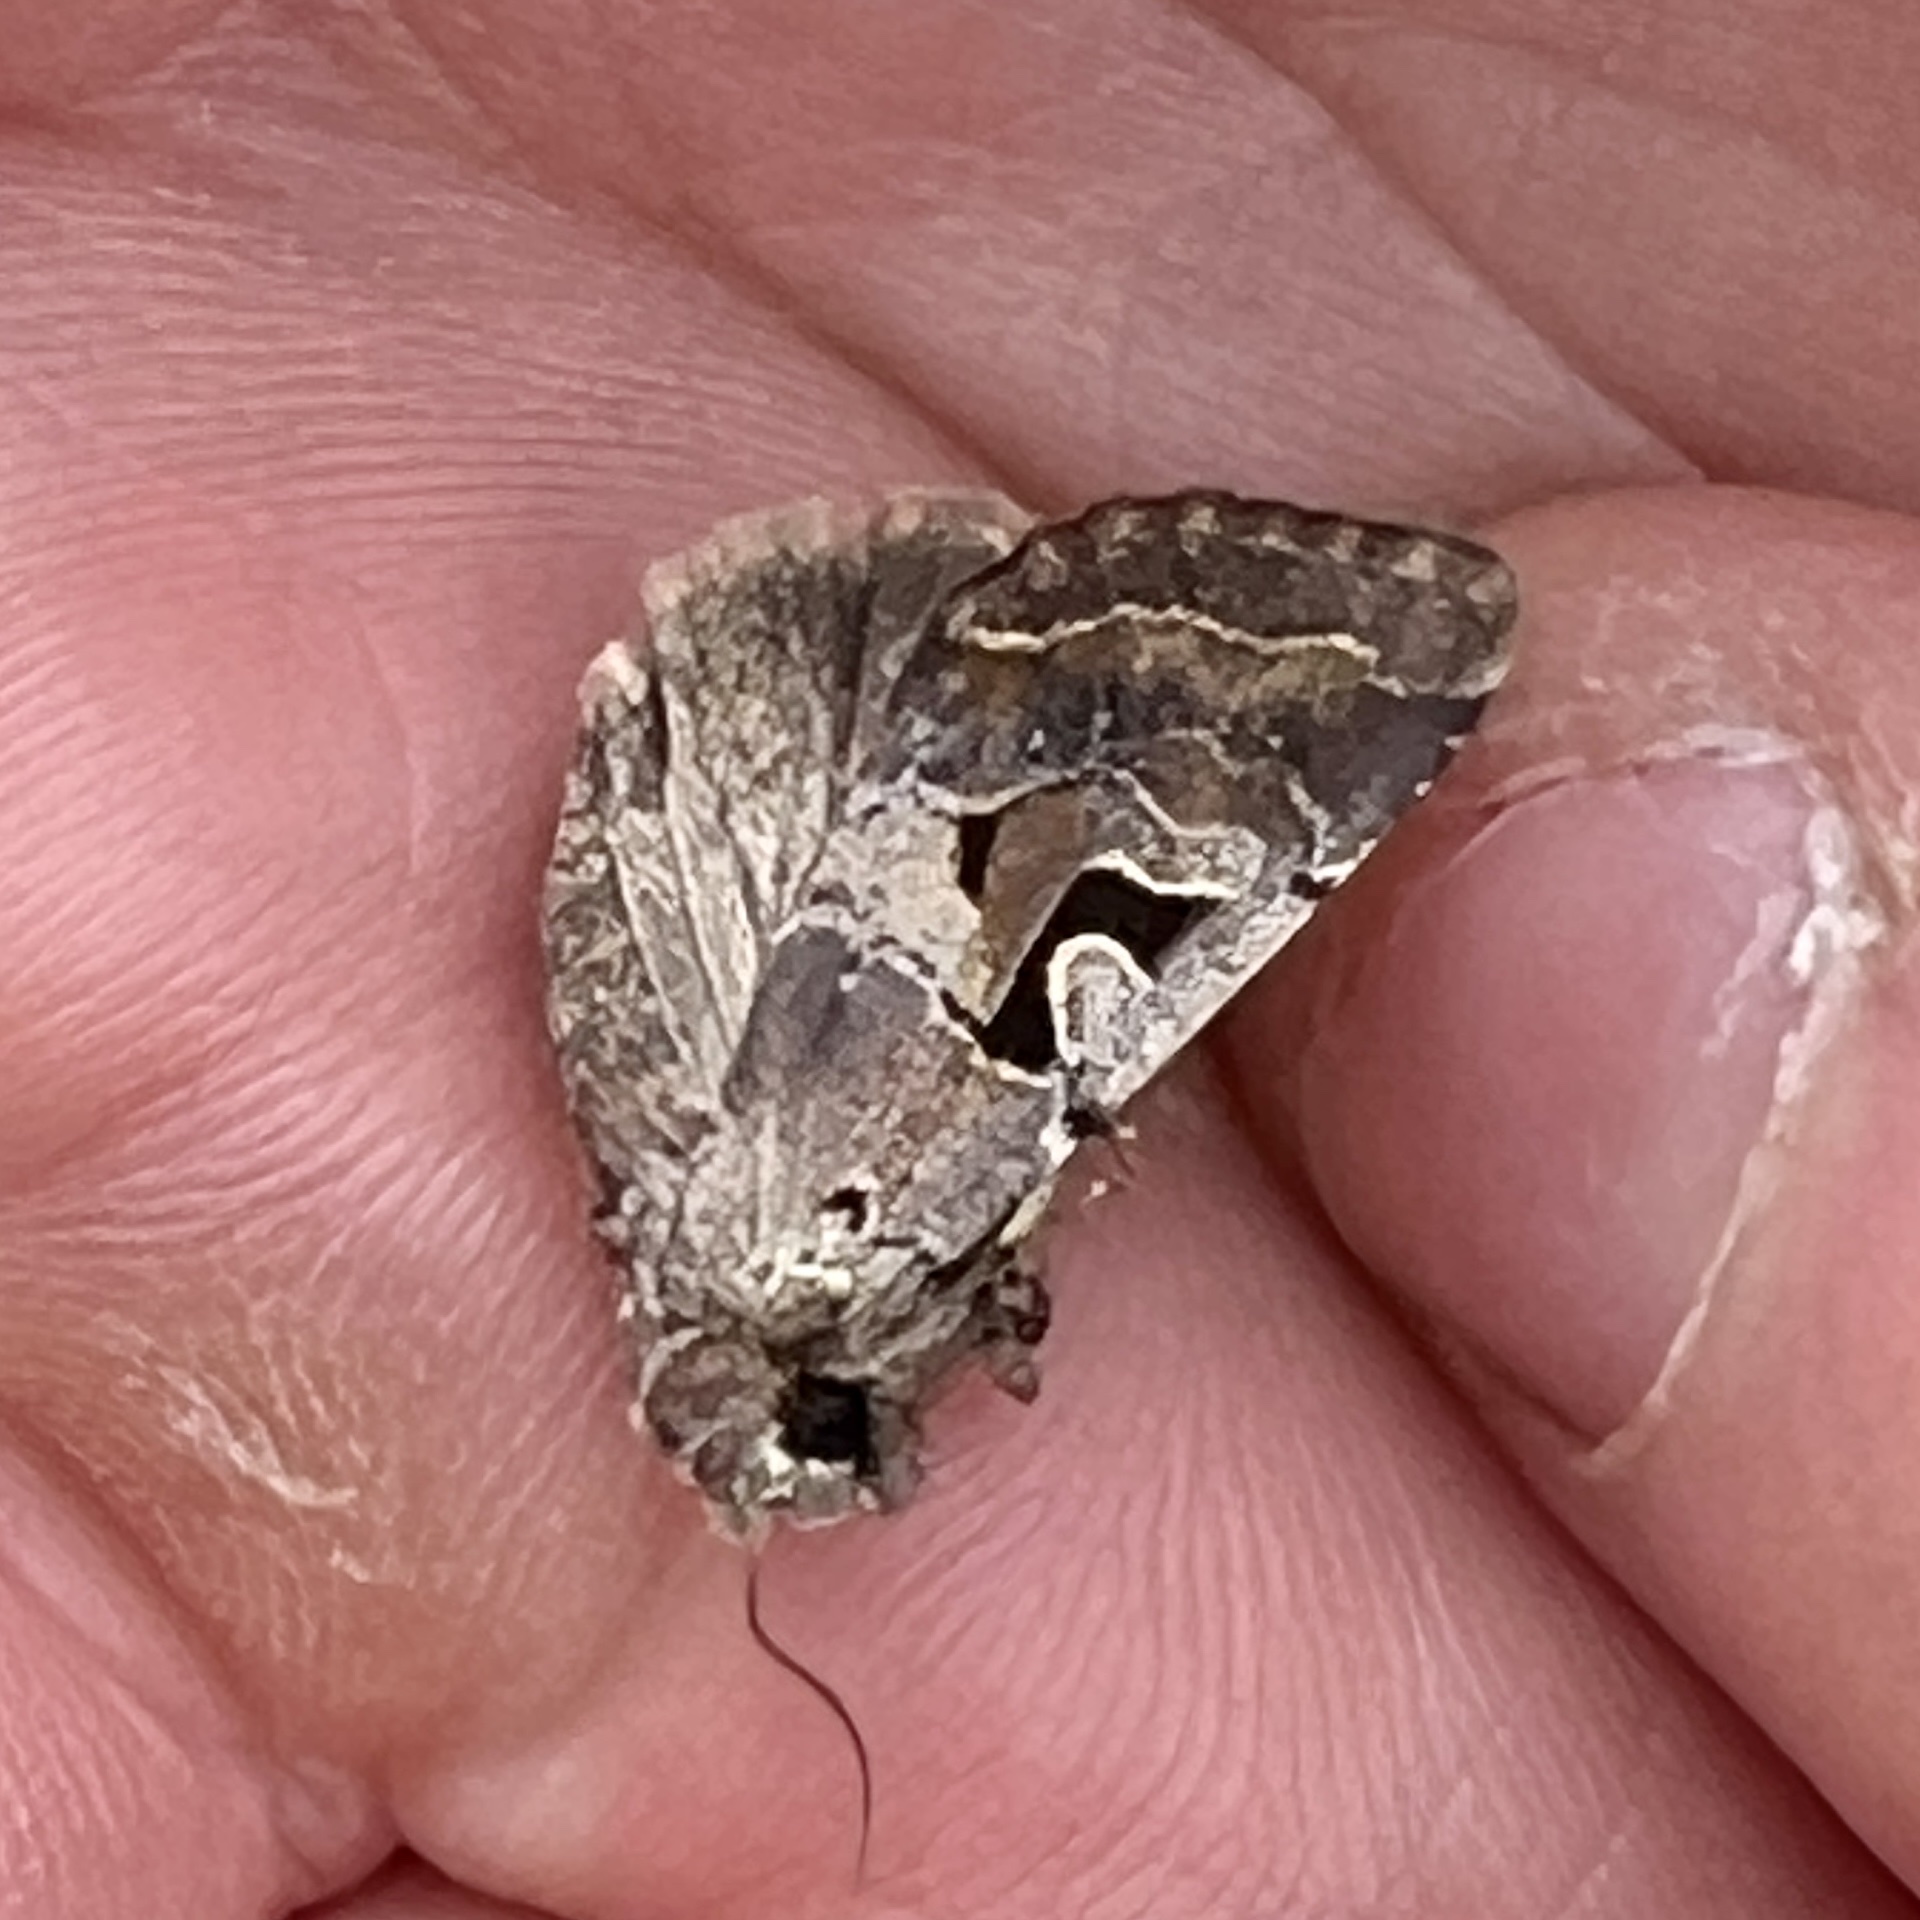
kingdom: Animalia
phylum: Arthropoda
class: Insecta
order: Lepidoptera
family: Noctuidae
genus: Orthosia
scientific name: Orthosia gothica
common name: Hebrew character
